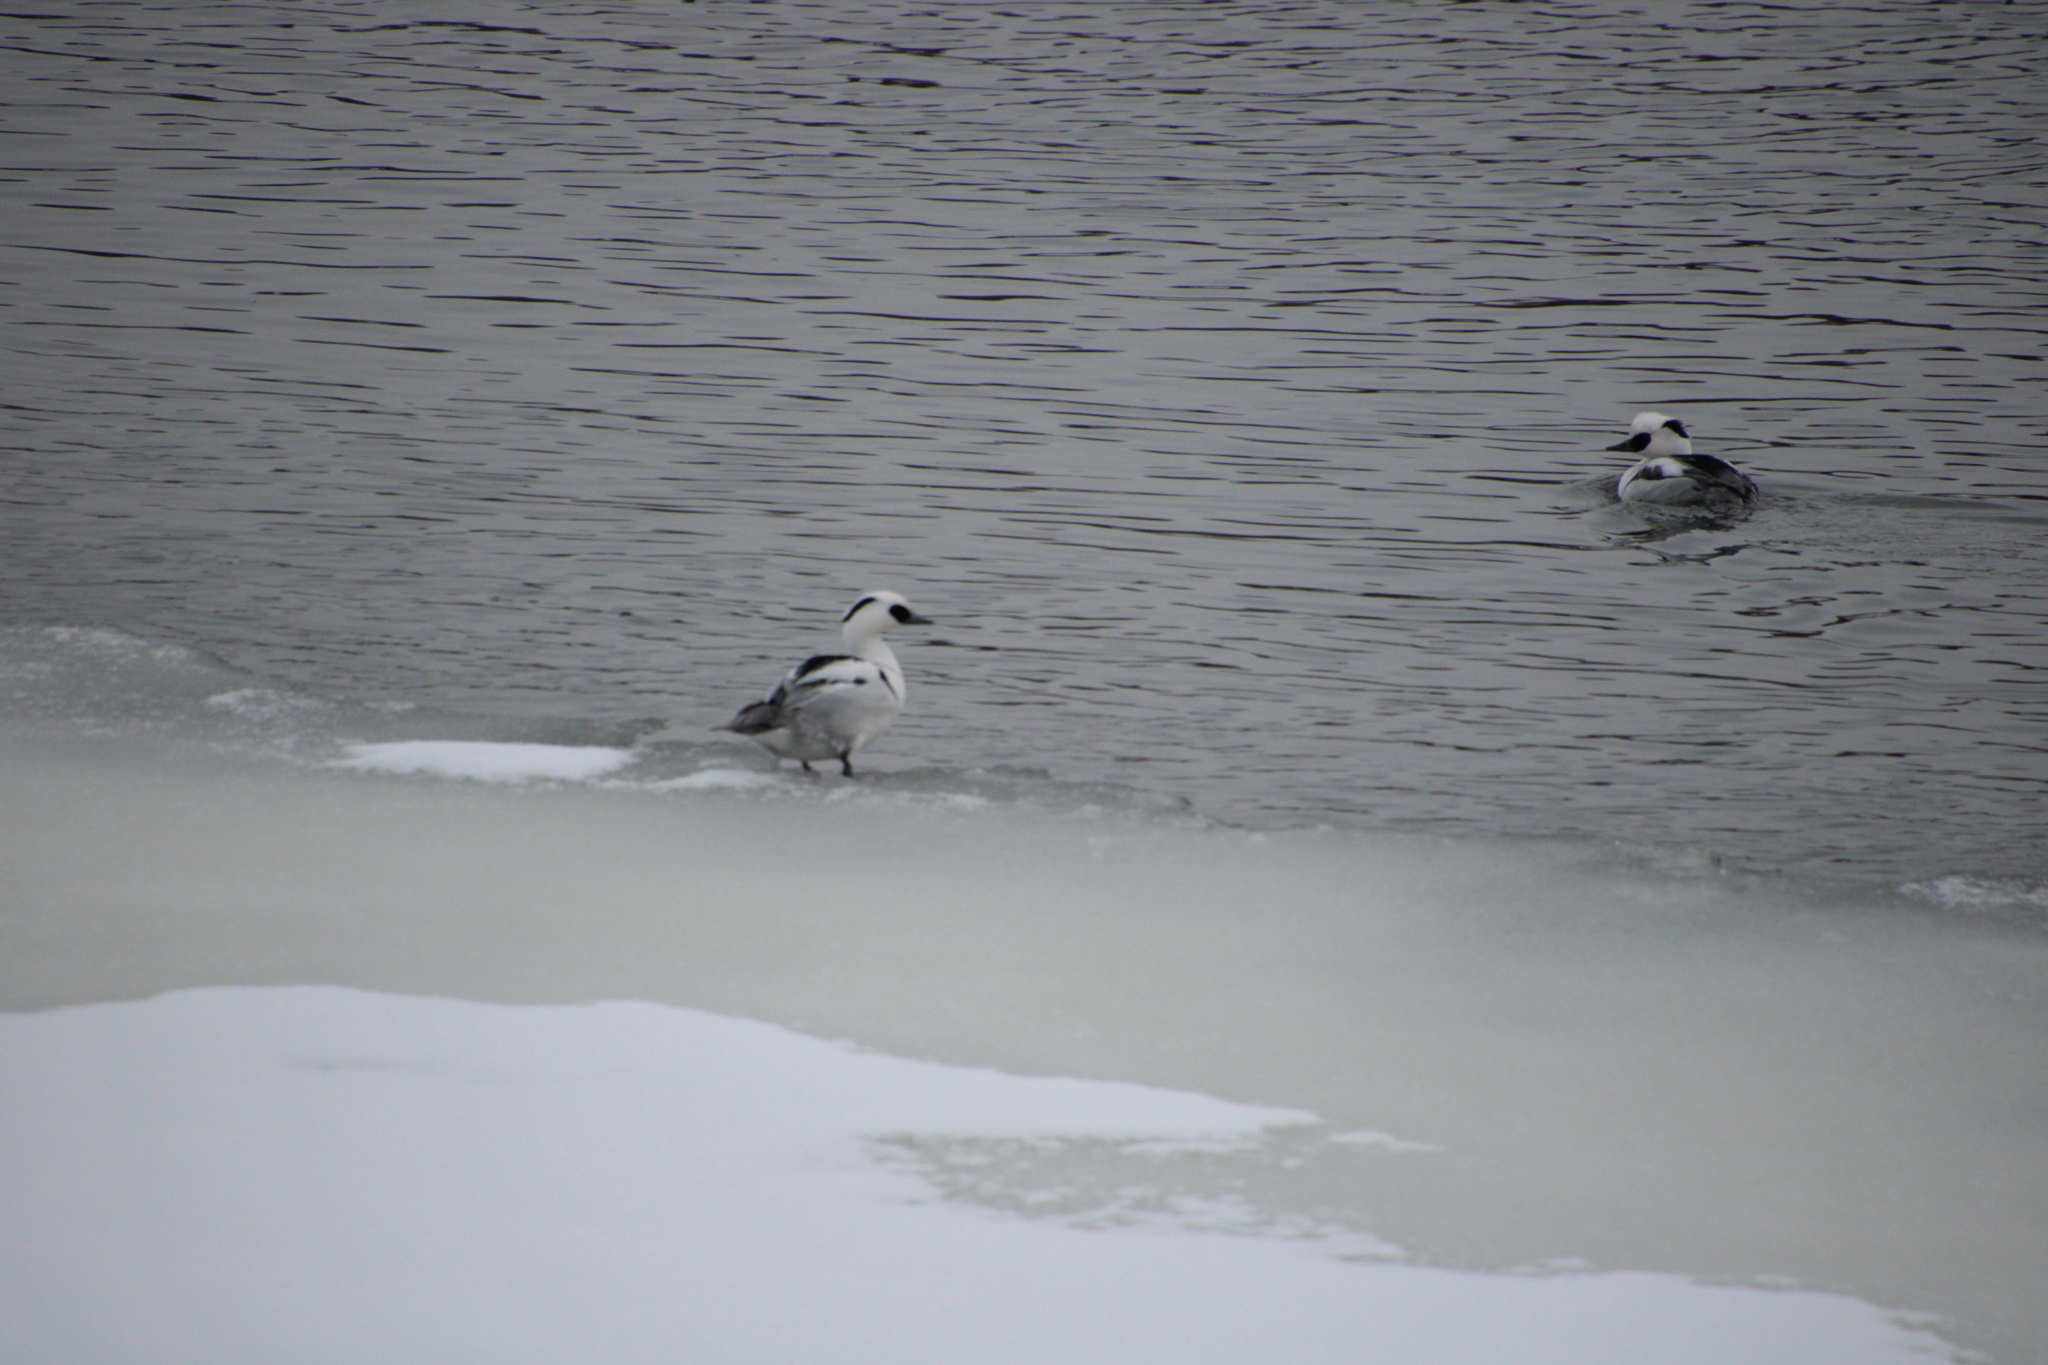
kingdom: Animalia
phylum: Chordata
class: Aves
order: Anseriformes
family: Anatidae
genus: Mergellus
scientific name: Mergellus albellus
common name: Smew
